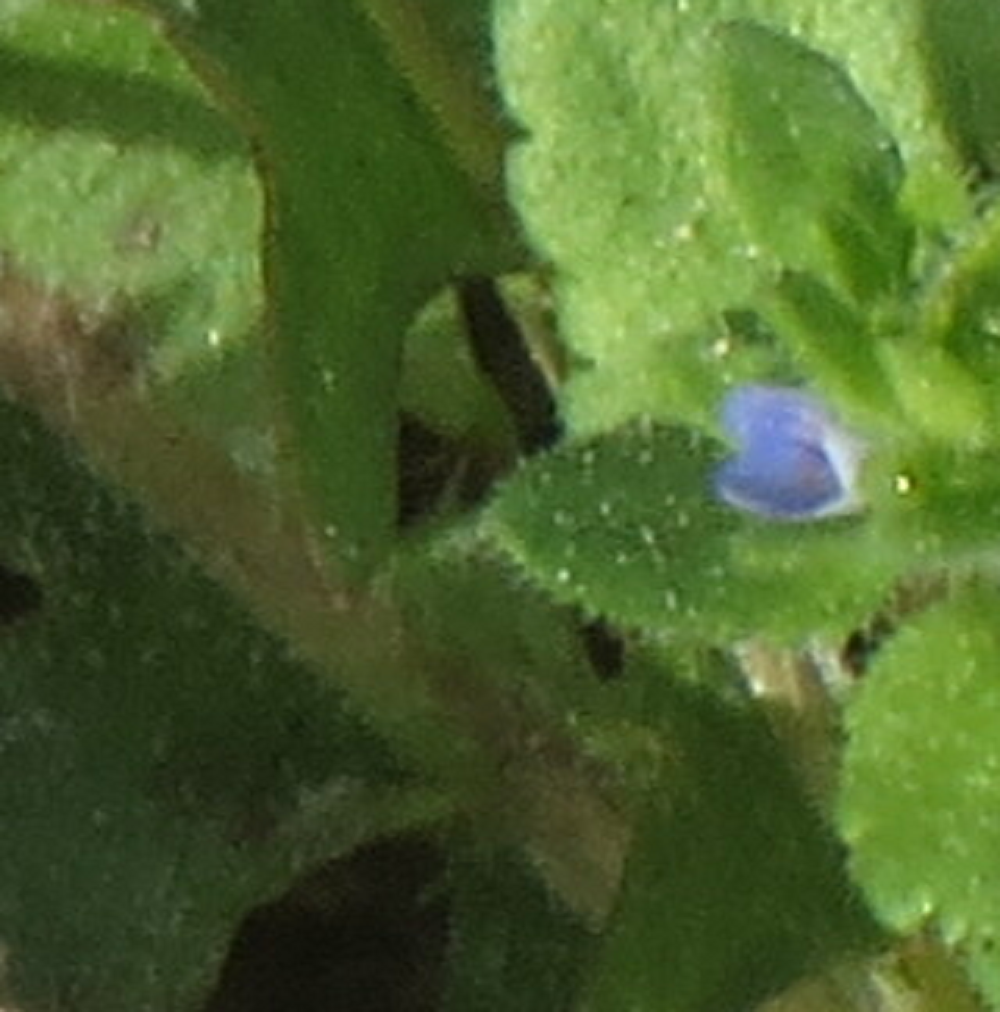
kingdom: Plantae
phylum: Tracheophyta
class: Magnoliopsida
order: Lamiales
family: Plantaginaceae
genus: Veronica
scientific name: Veronica arvensis
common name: Corn speedwell
